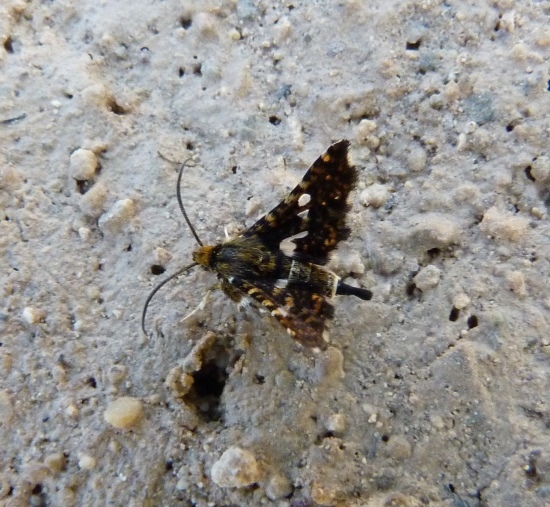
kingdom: Animalia
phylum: Arthropoda
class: Insecta
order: Lepidoptera
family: Thyrididae
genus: Thyris
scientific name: Thyris fenestrella
